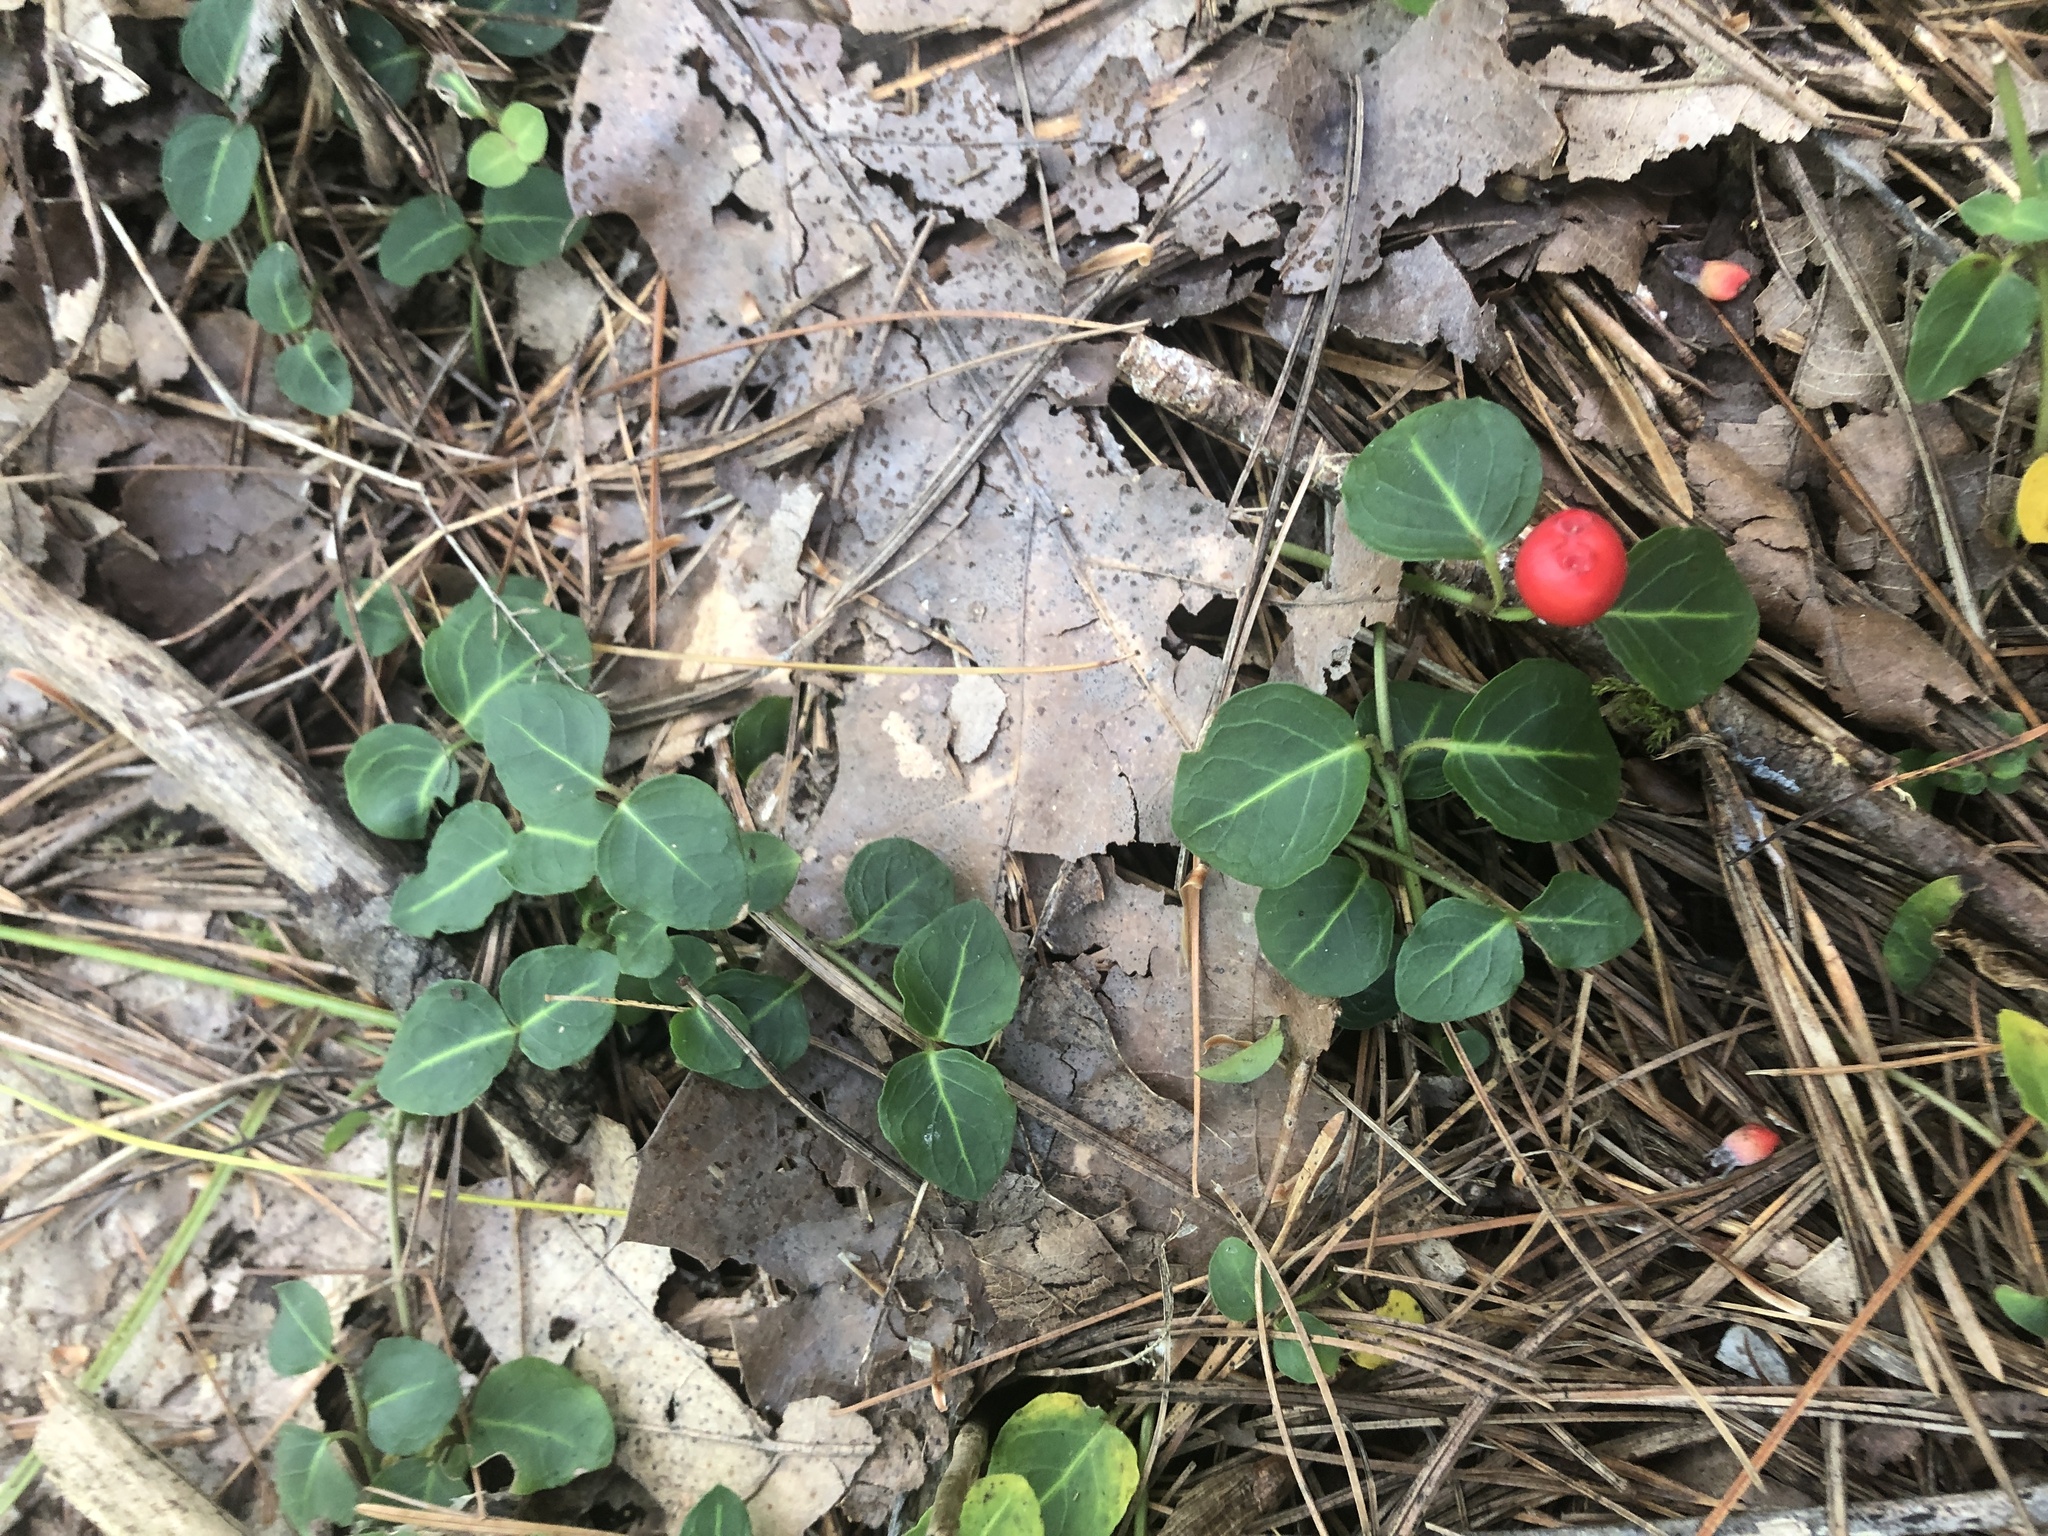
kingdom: Plantae
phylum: Tracheophyta
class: Magnoliopsida
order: Gentianales
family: Rubiaceae
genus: Mitchella
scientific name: Mitchella repens
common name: Partridge-berry
